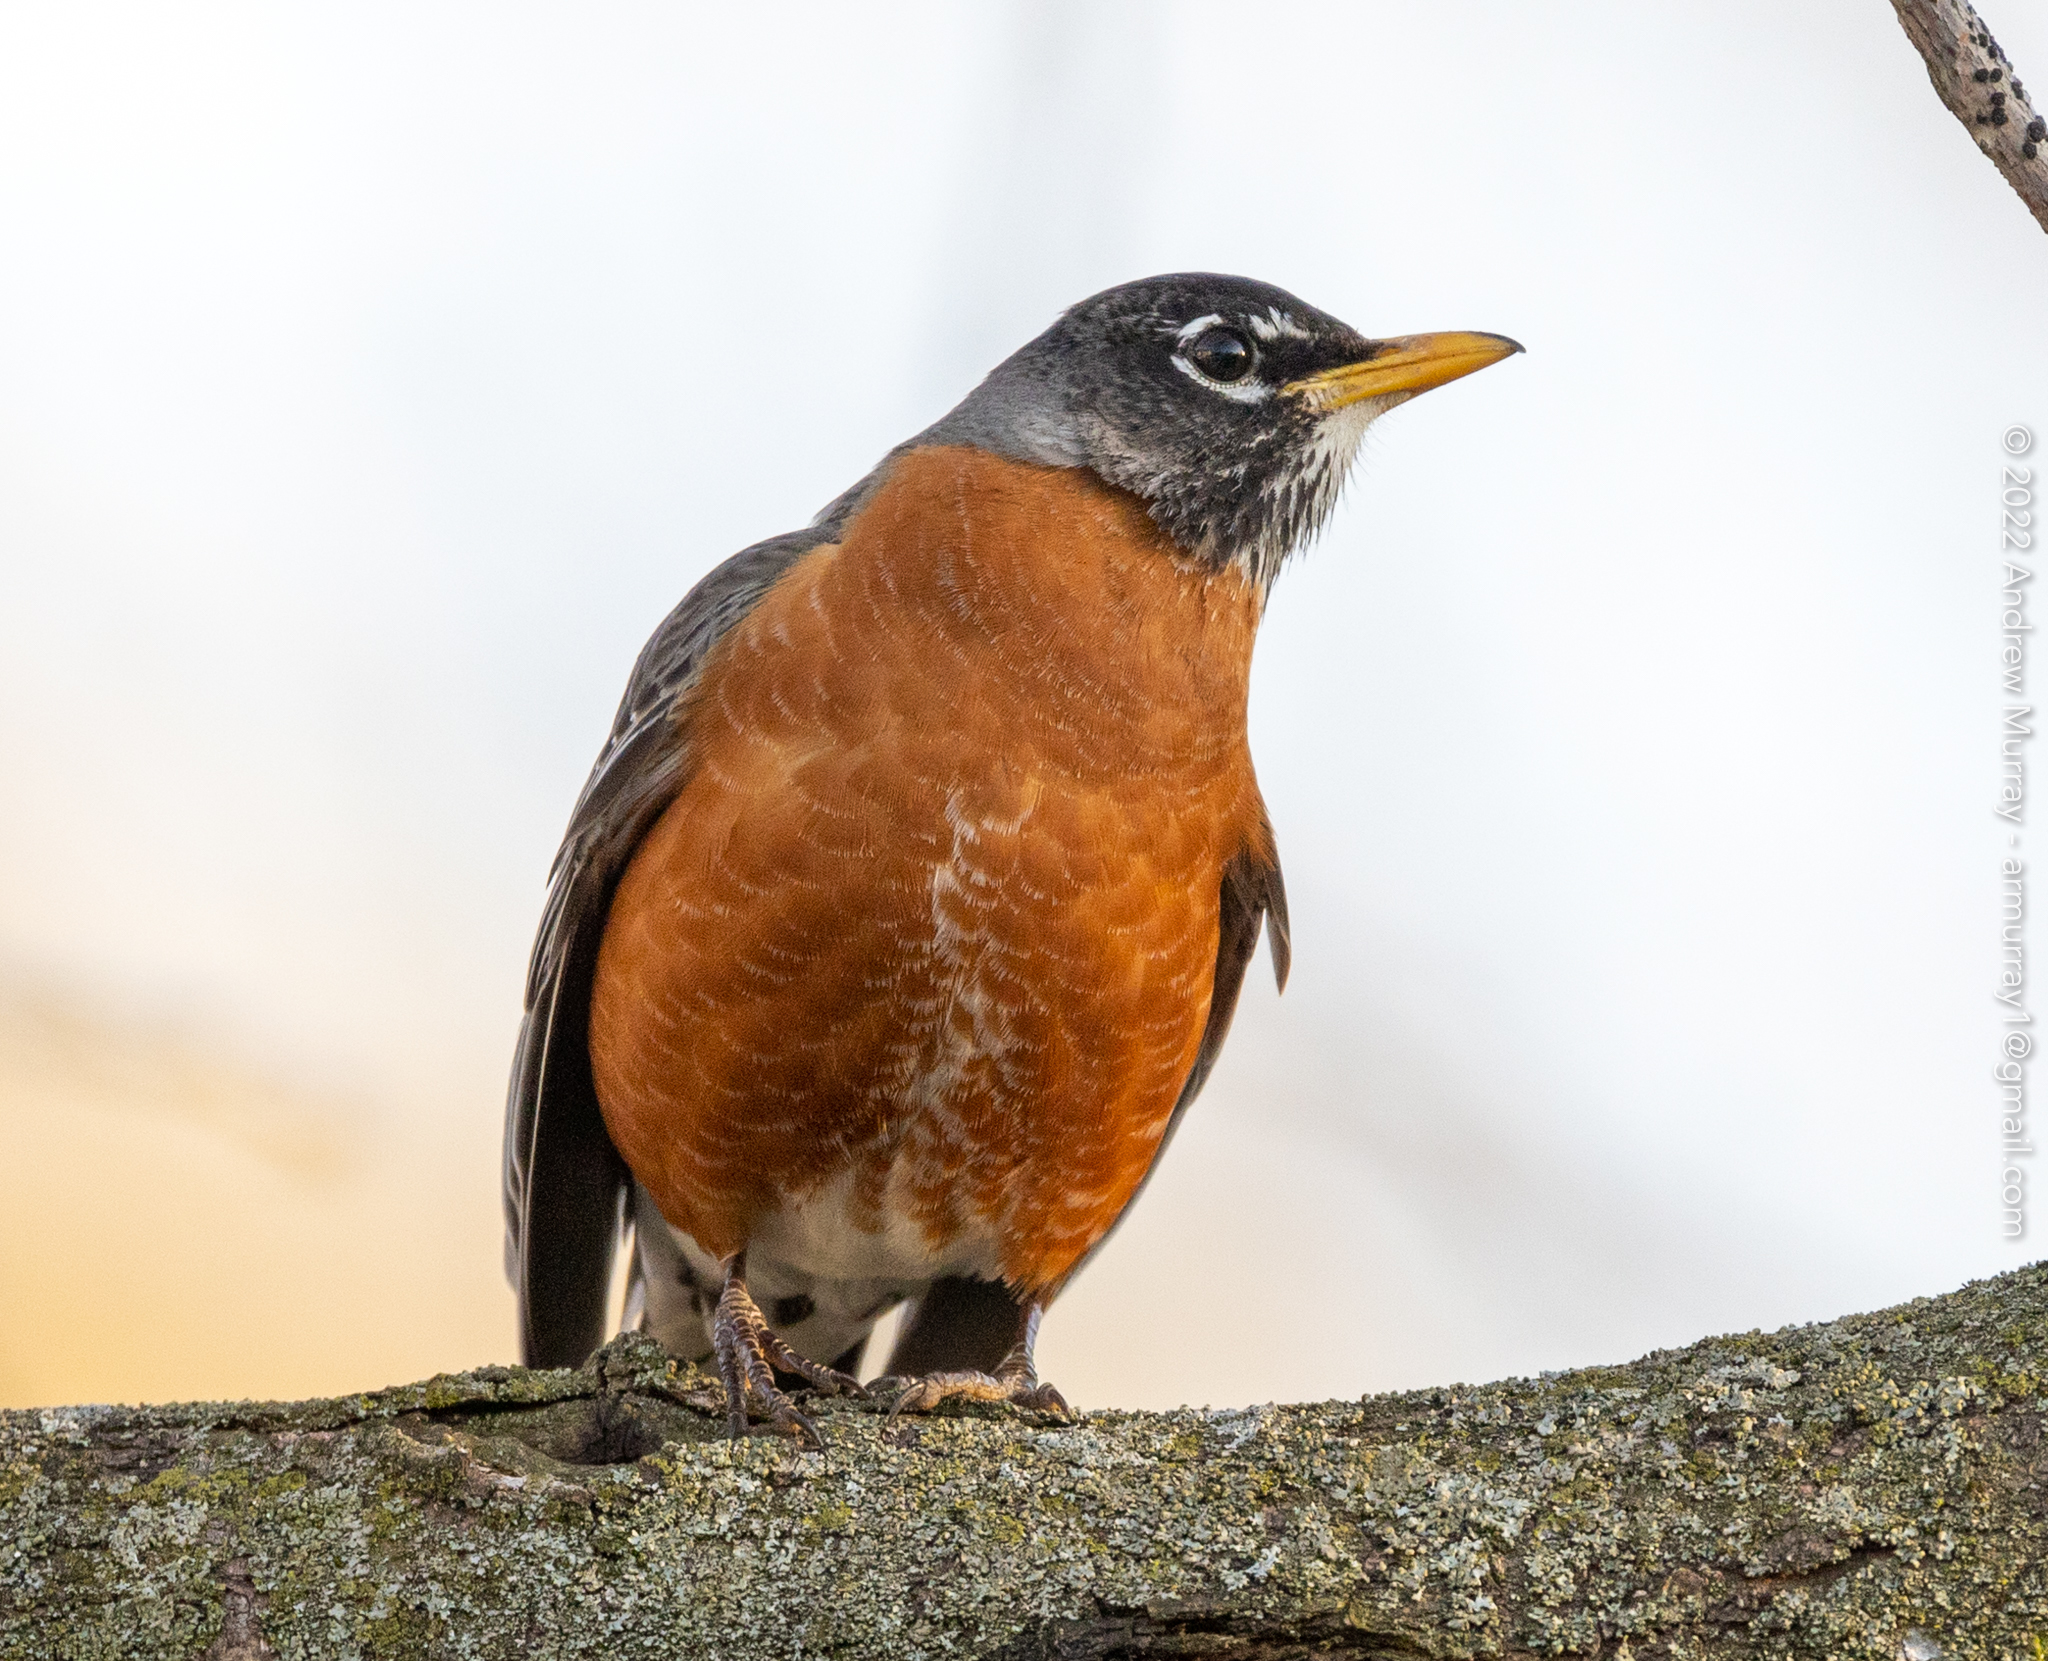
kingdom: Animalia
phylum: Chordata
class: Aves
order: Passeriformes
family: Turdidae
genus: Turdus
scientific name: Turdus migratorius
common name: American robin
